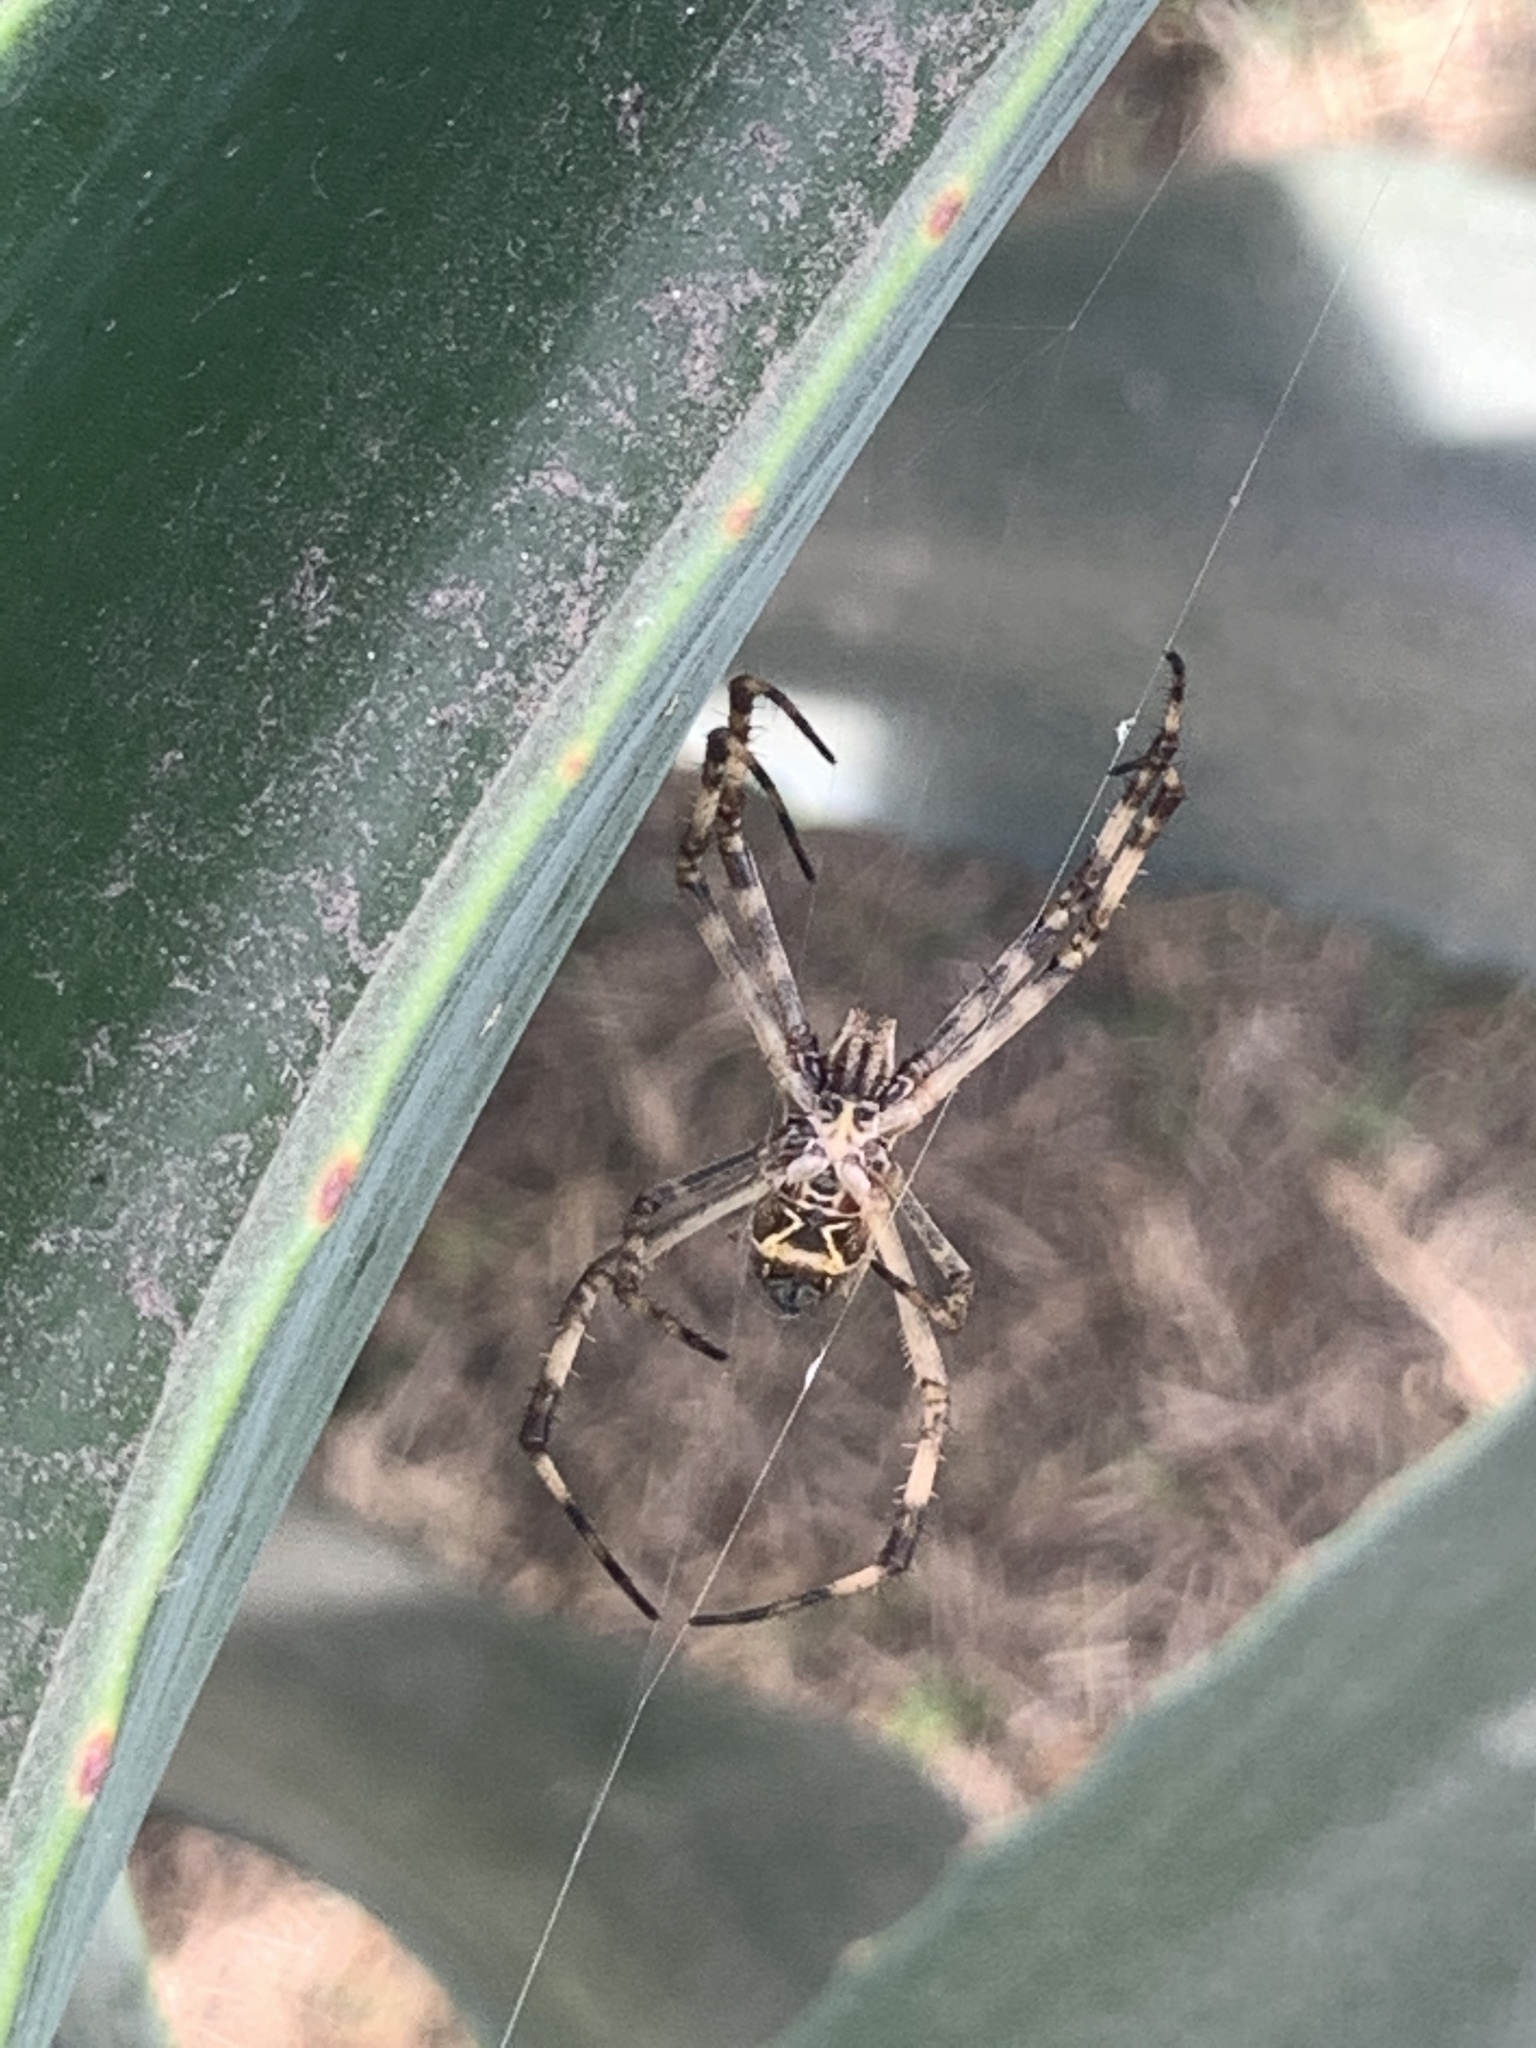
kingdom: Animalia
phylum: Arthropoda
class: Arachnida
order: Araneae
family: Araneidae
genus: Argiope
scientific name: Argiope argentata
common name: Orb weavers
